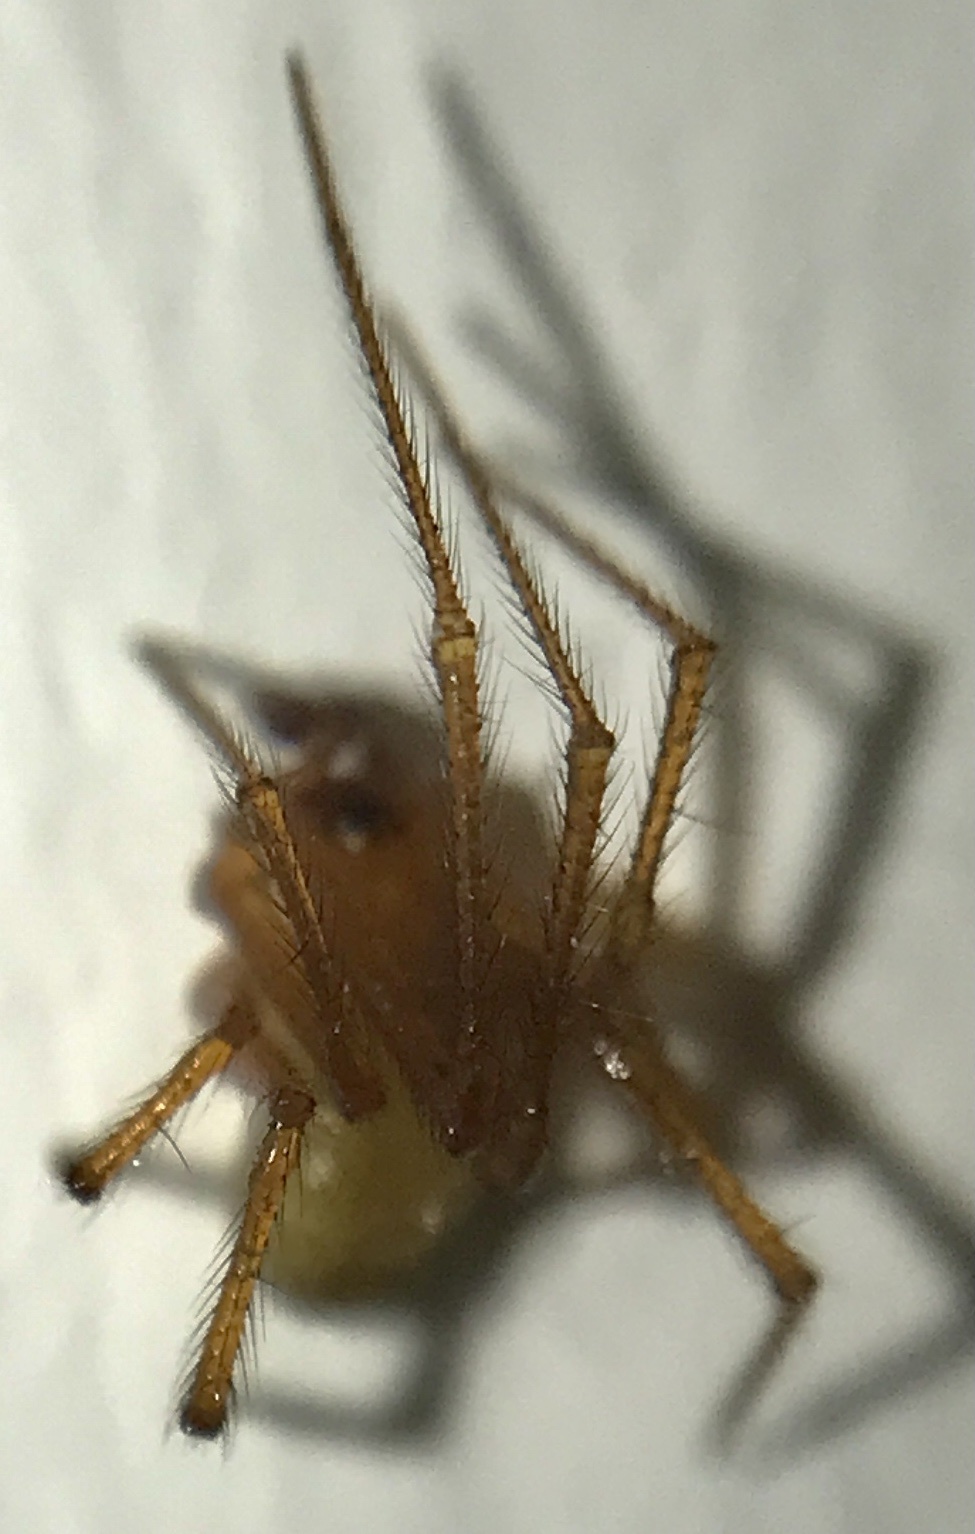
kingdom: Animalia
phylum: Arthropoda
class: Arachnida
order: Araneae
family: Theridiidae
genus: Nesticodes
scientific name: Nesticodes rufipes
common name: Cobweb spiders
